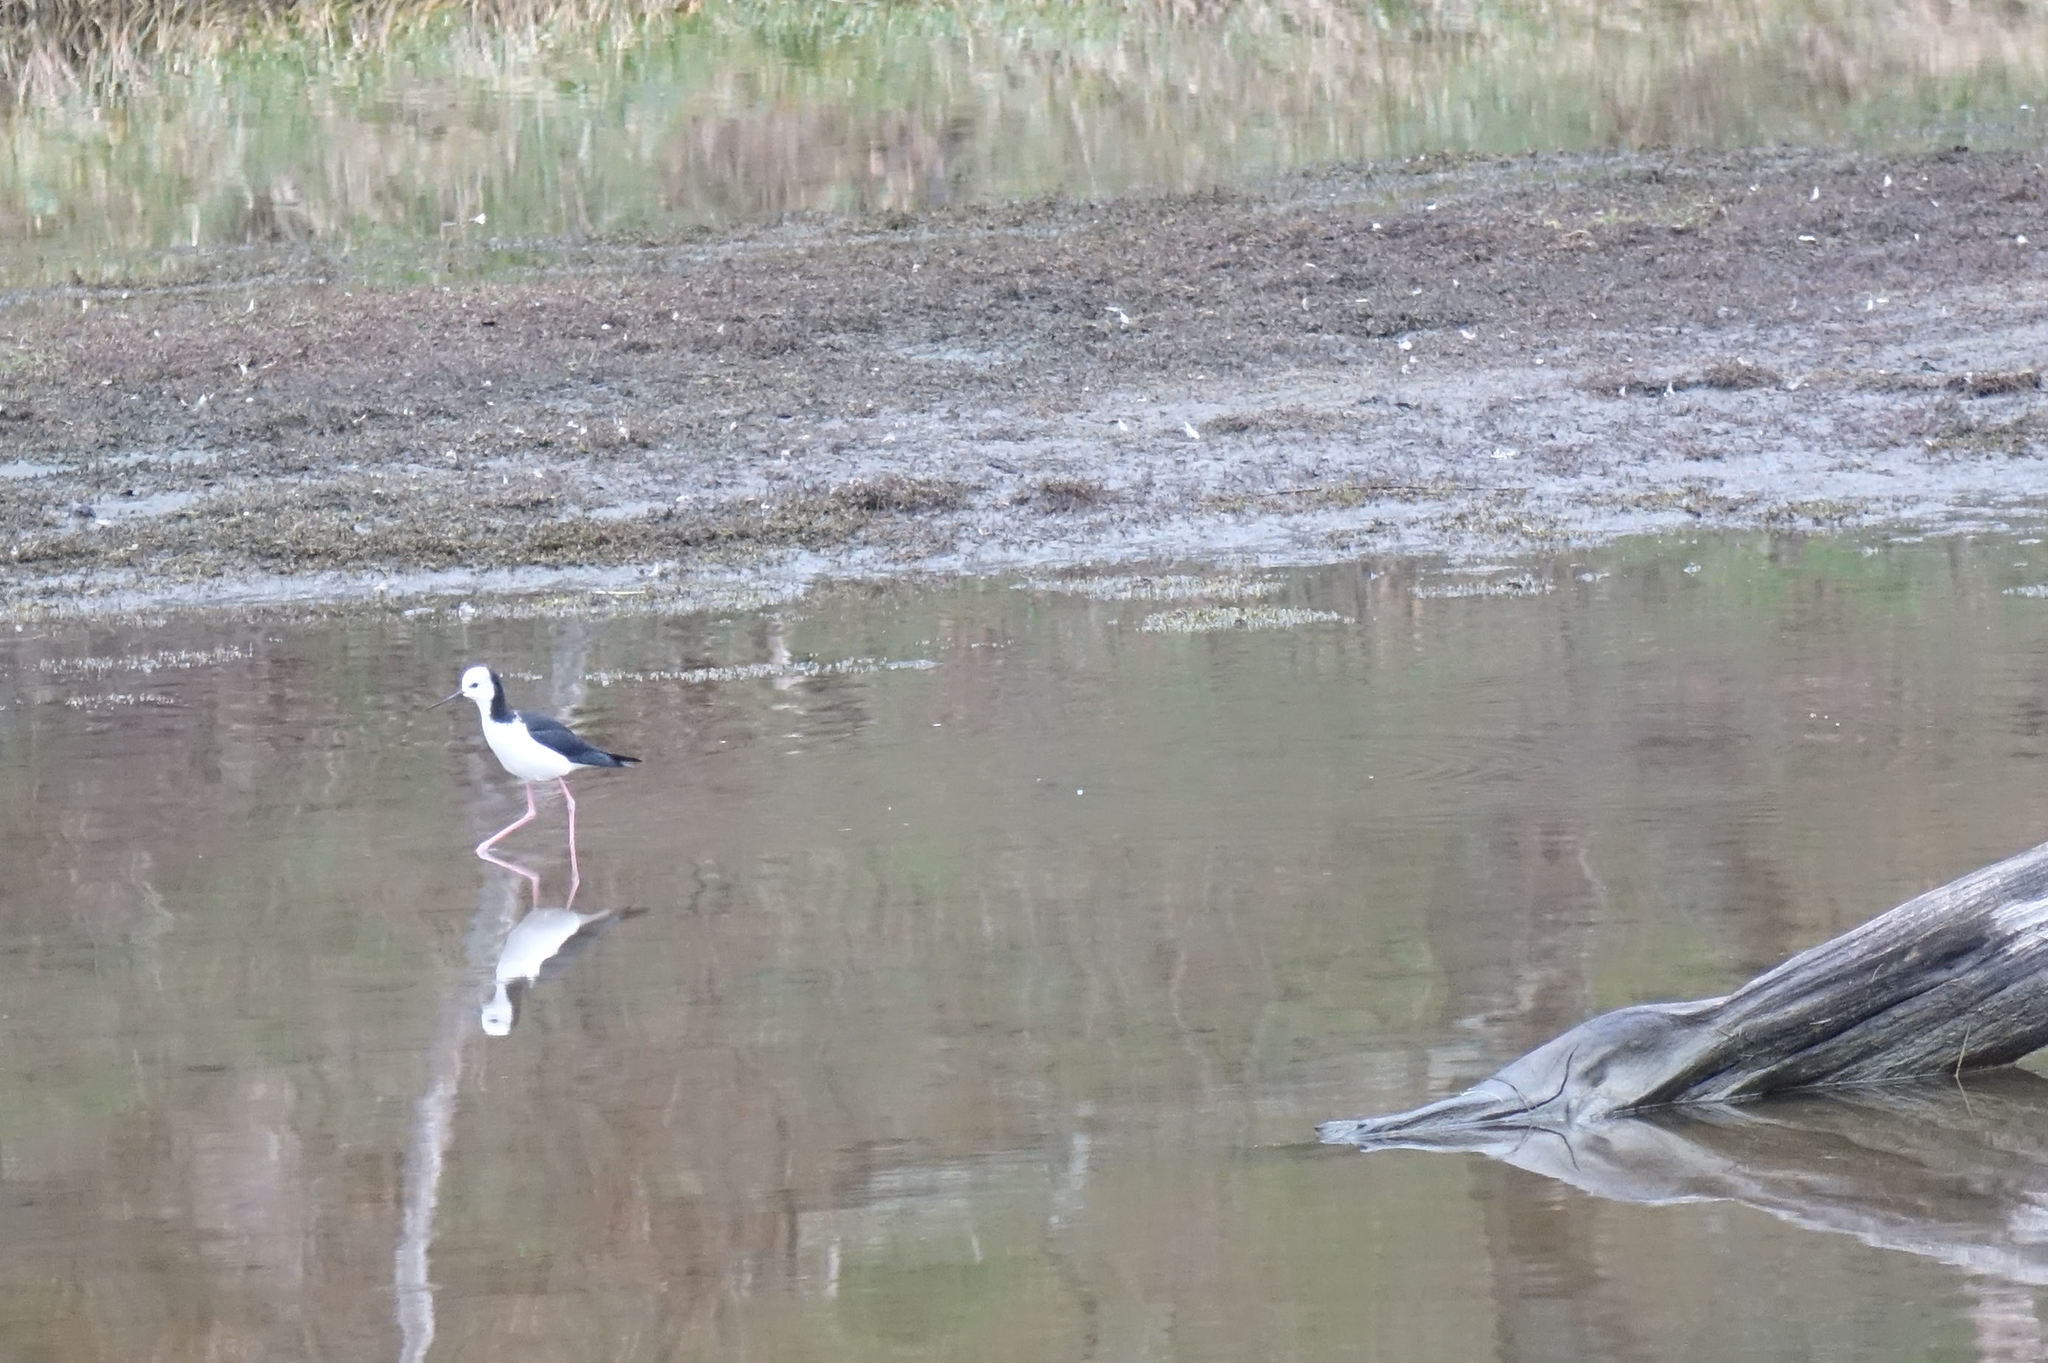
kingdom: Animalia
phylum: Chordata
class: Aves
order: Charadriiformes
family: Recurvirostridae
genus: Himantopus
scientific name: Himantopus leucocephalus
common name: White-headed stilt
